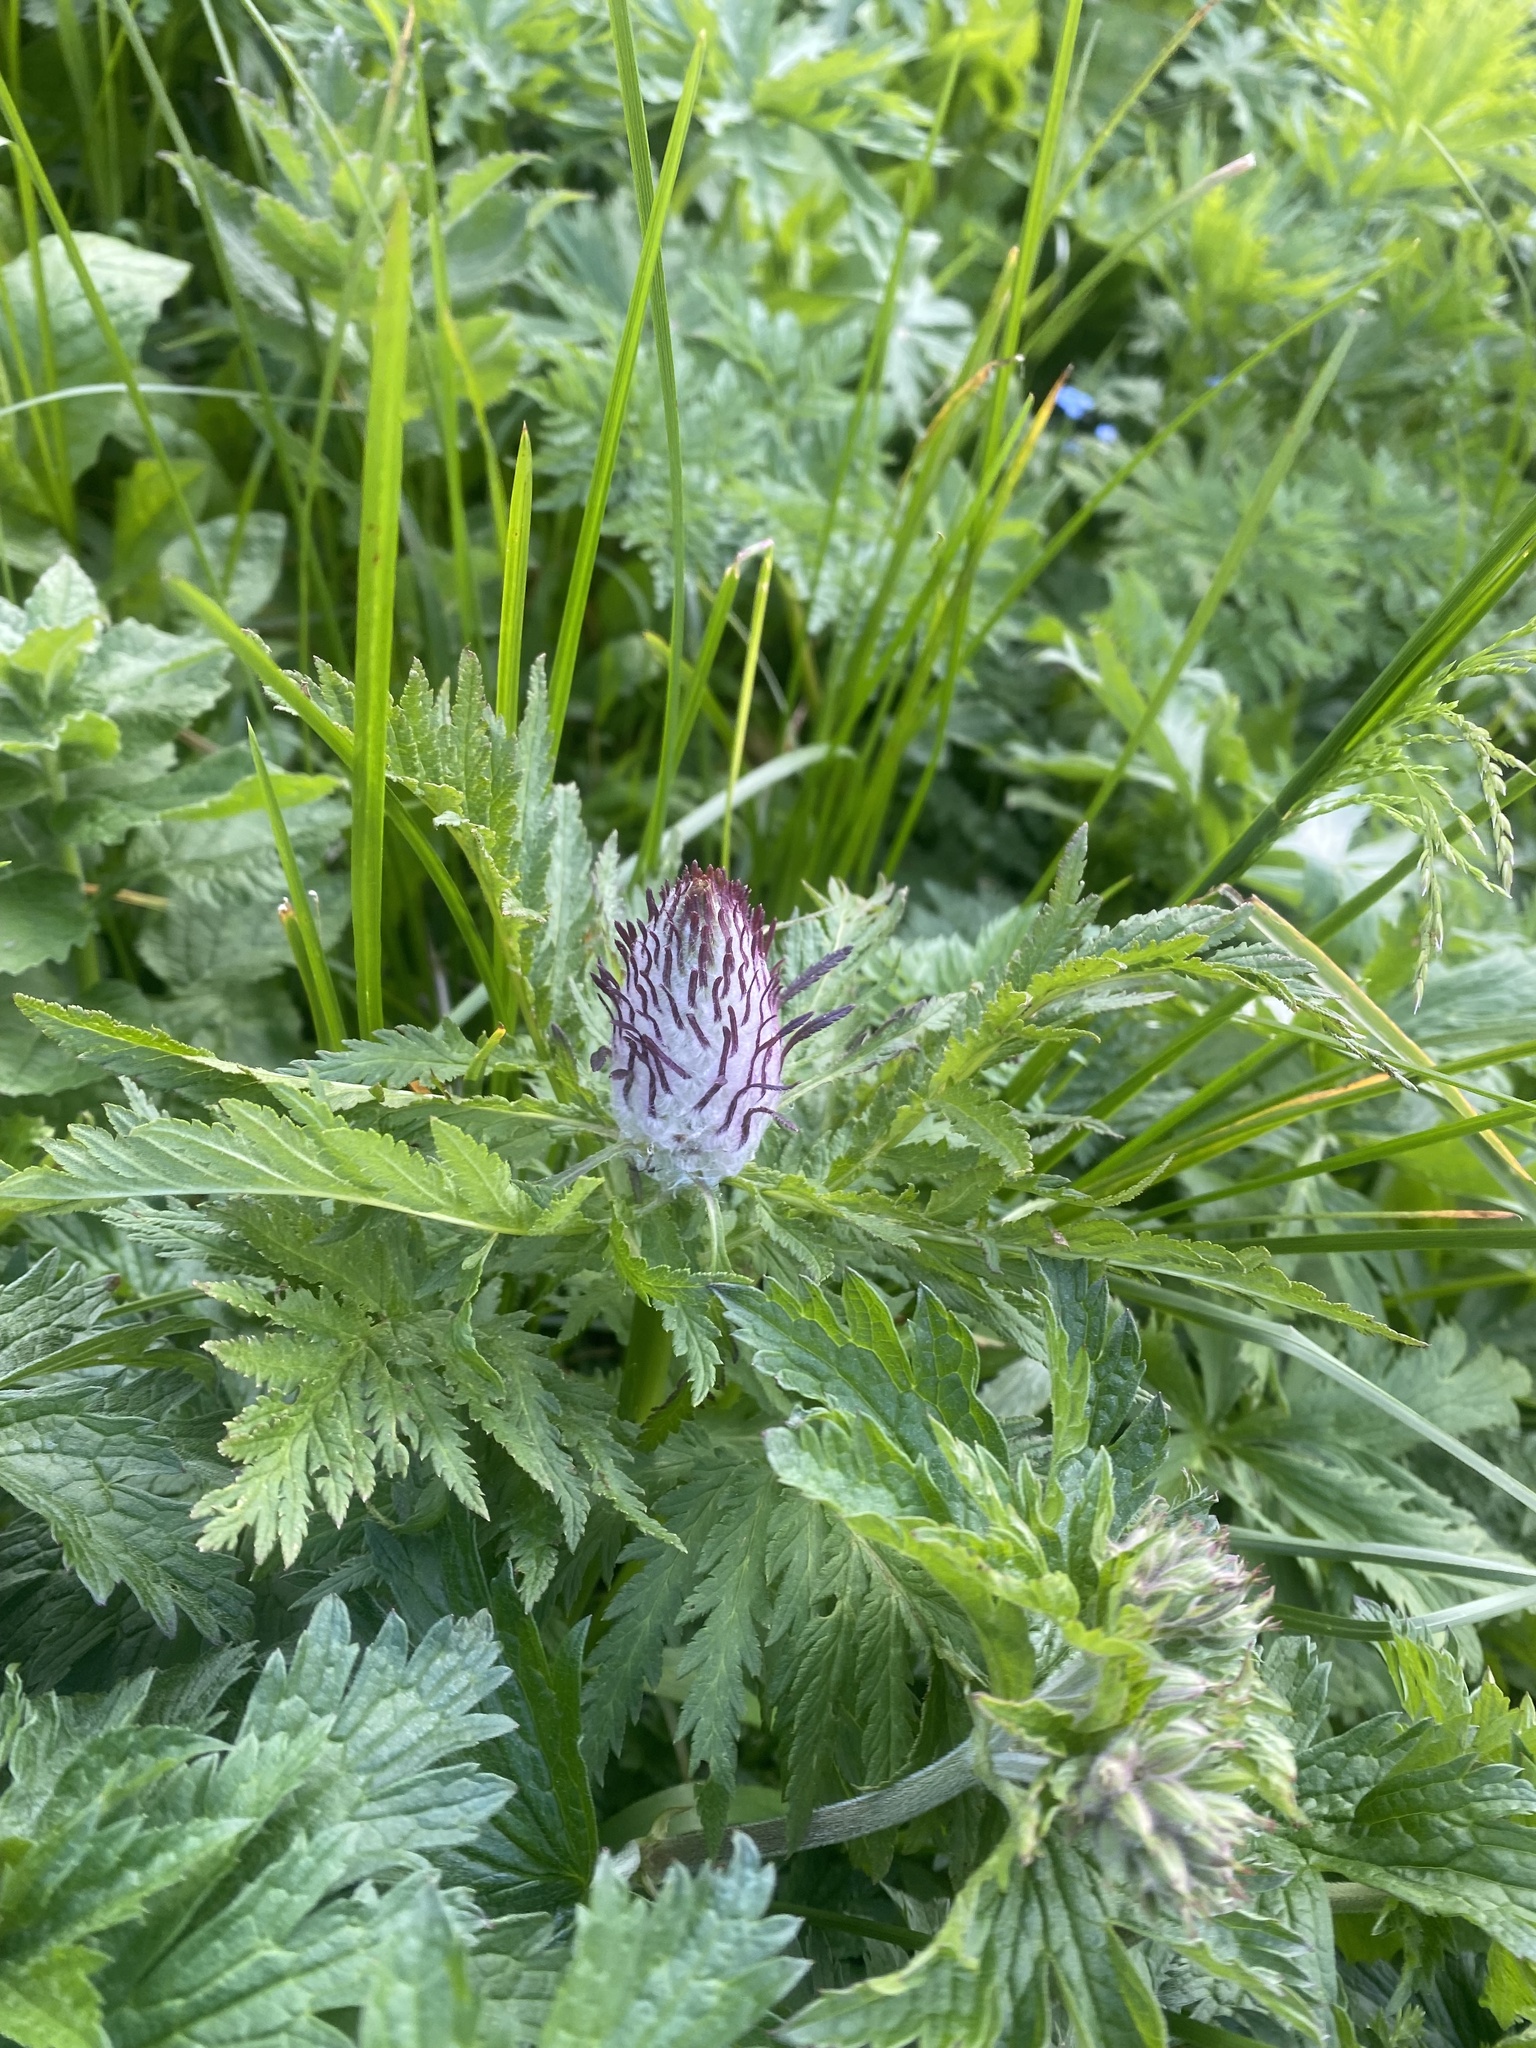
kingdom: Plantae
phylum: Tracheophyta
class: Magnoliopsida
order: Lamiales
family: Orobanchaceae
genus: Pedicularis
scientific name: Pedicularis atropurpurea
